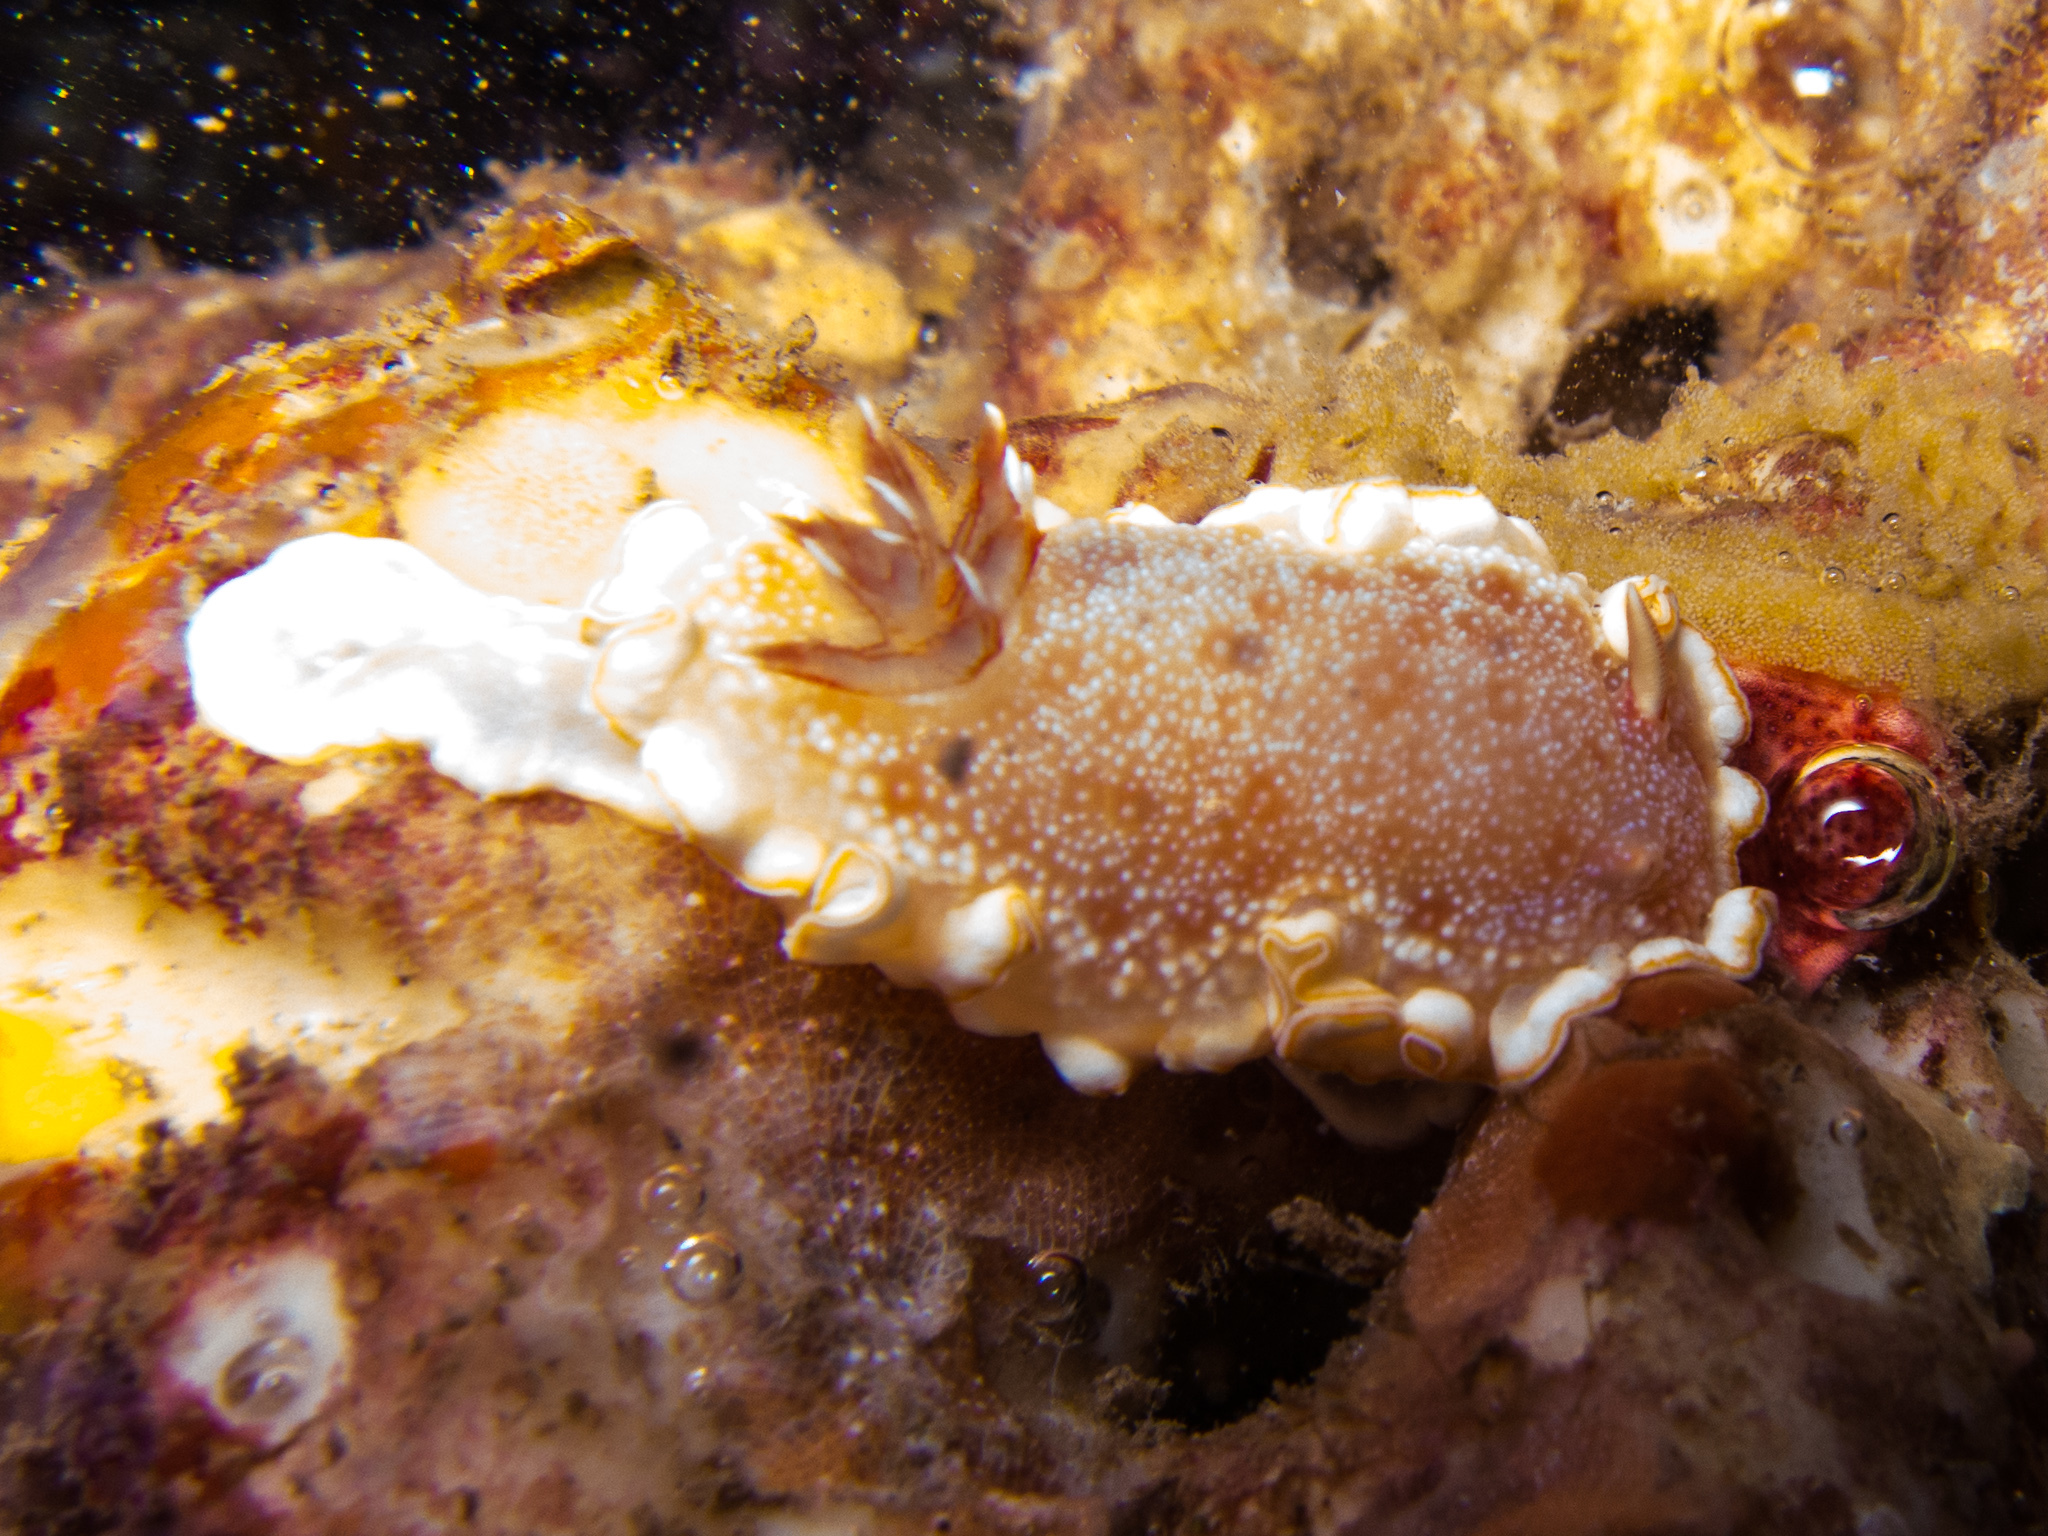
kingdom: Animalia
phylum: Mollusca
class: Gastropoda
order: Nudibranchia
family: Chromodorididae
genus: Ardeadoris
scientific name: Ardeadoris poliahu
